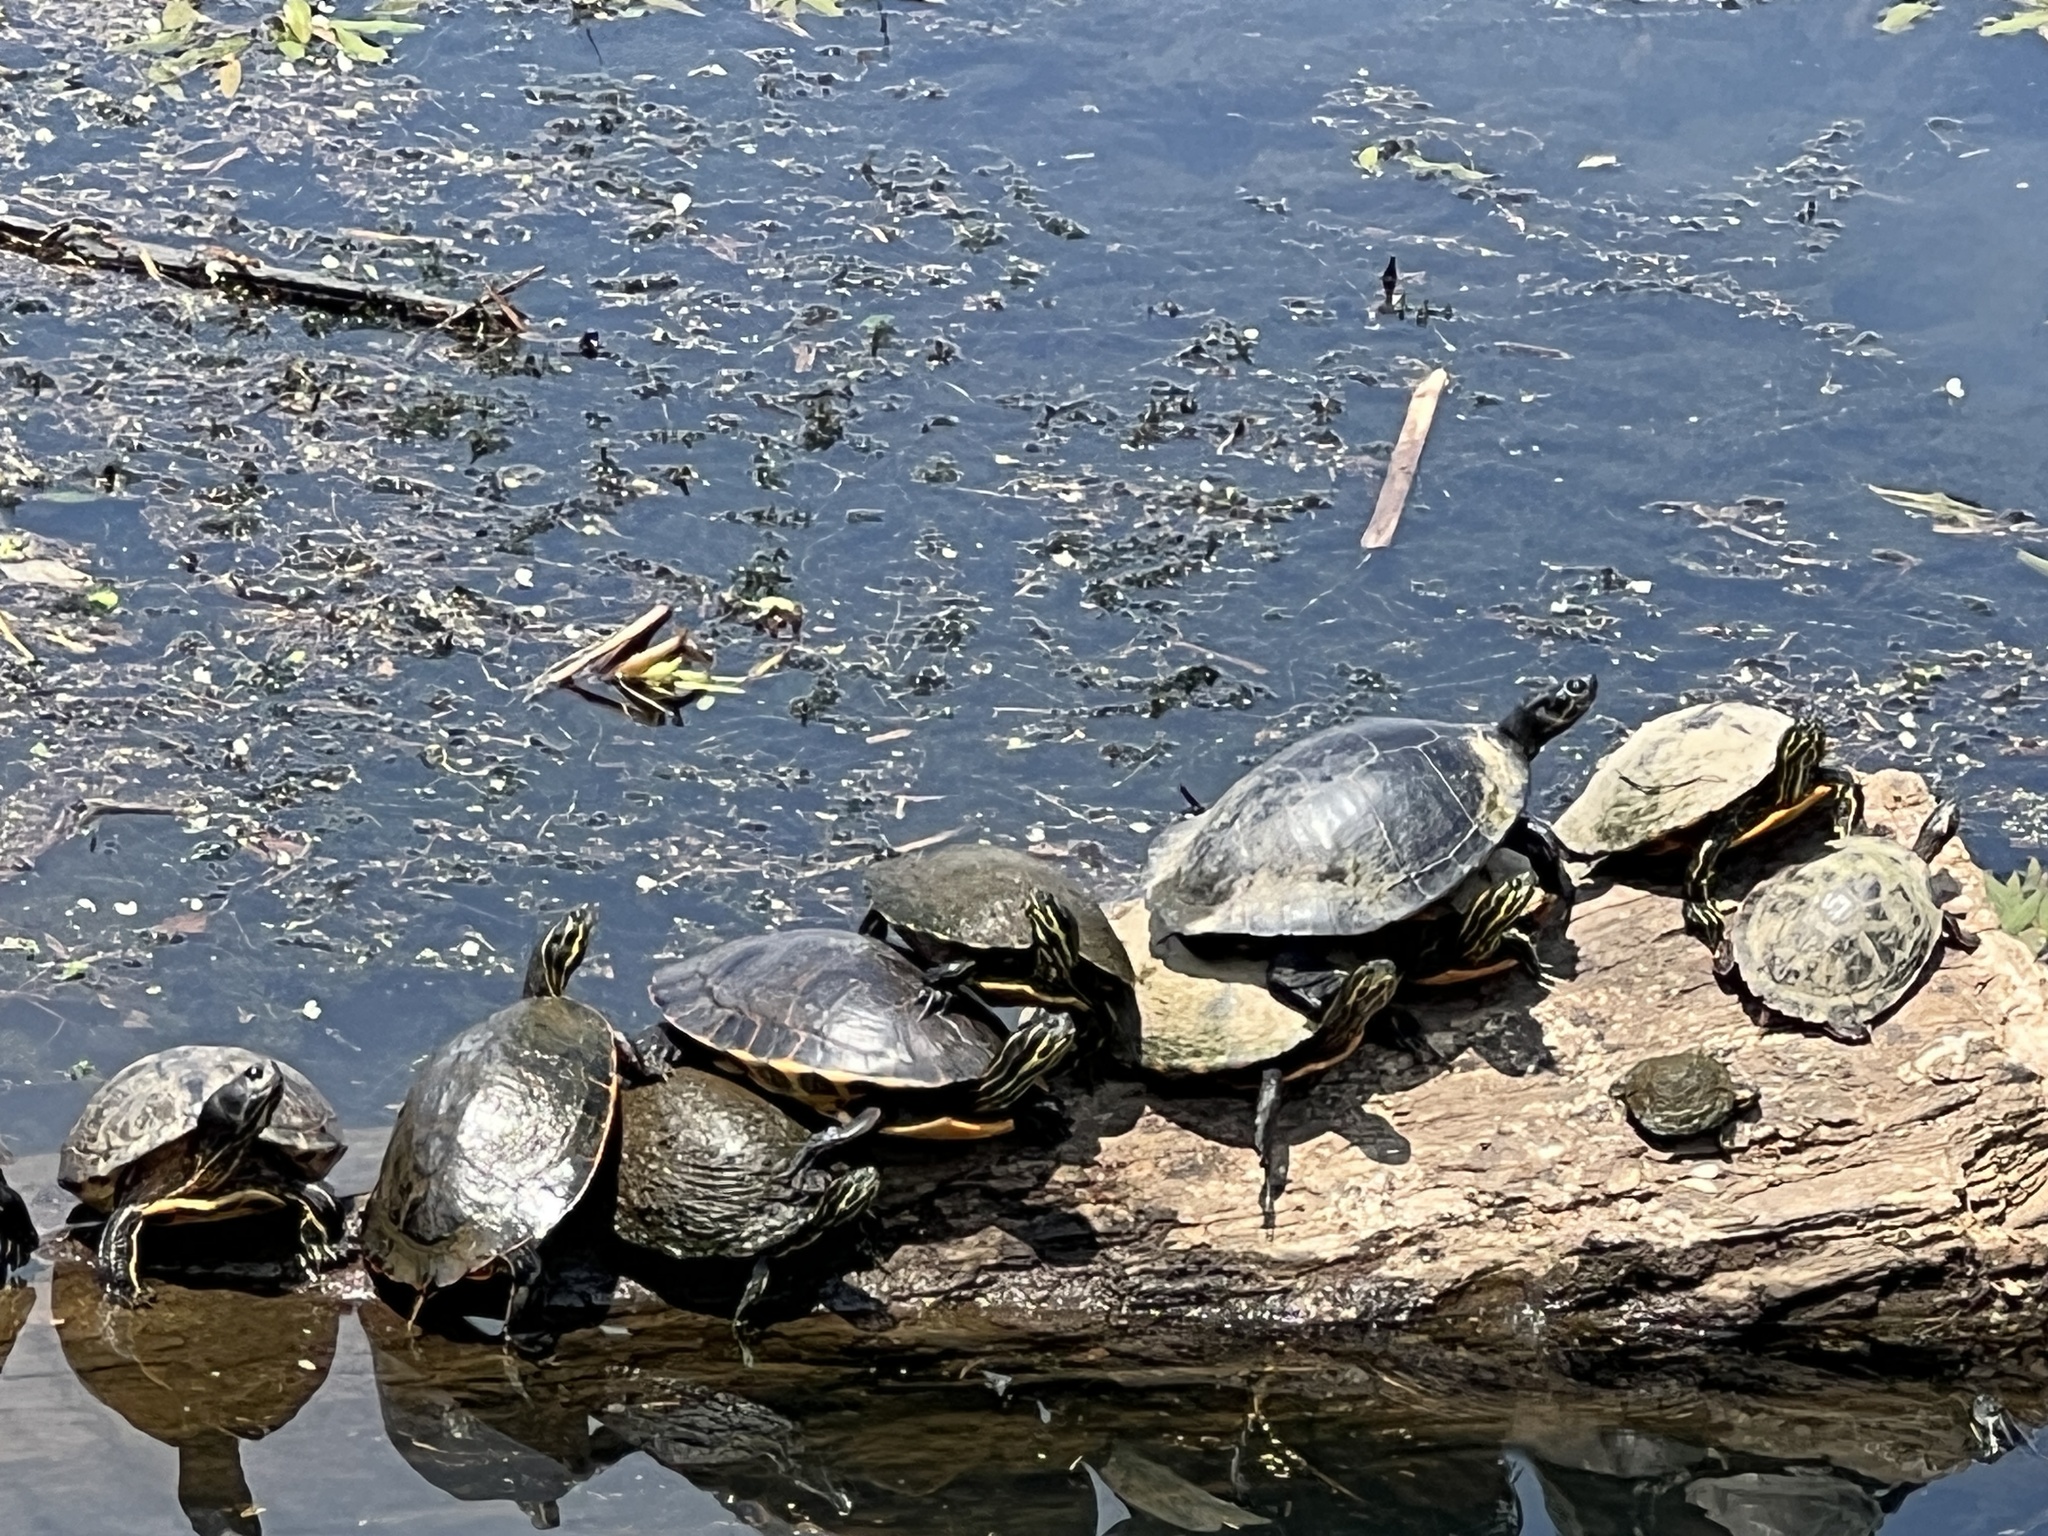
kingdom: Animalia
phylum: Chordata
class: Testudines
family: Emydidae
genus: Pseudemys
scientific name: Pseudemys concinna
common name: Eastern river cooter
